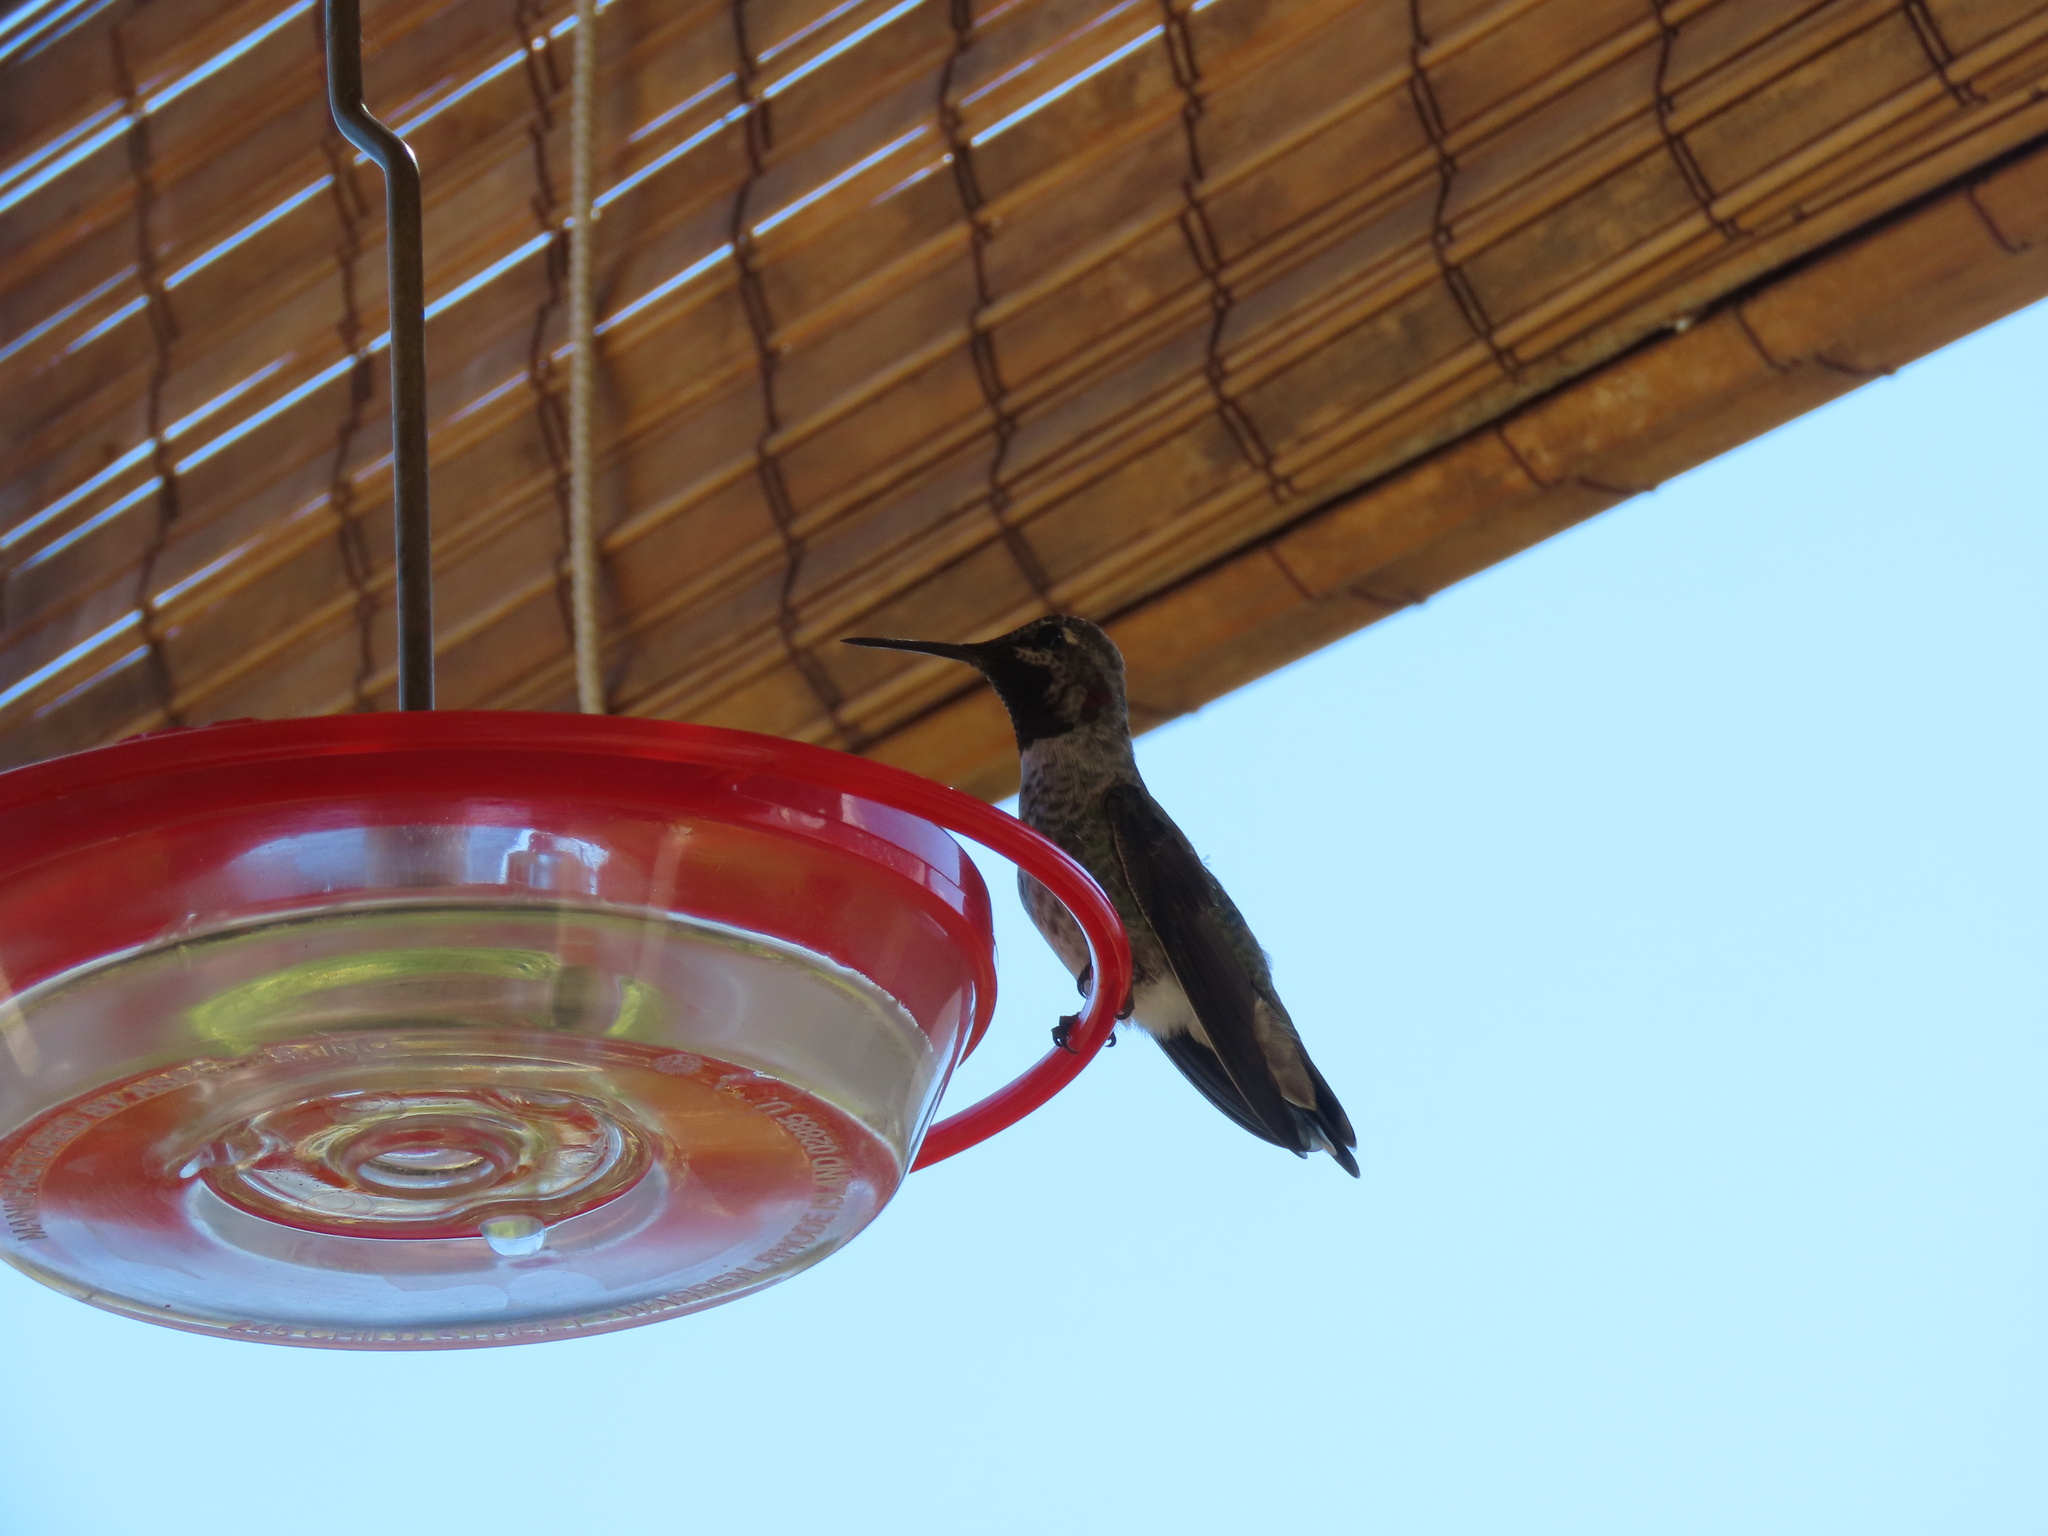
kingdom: Animalia
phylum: Chordata
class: Aves
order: Apodiformes
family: Trochilidae
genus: Calypte
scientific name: Calypte anna
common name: Anna's hummingbird
